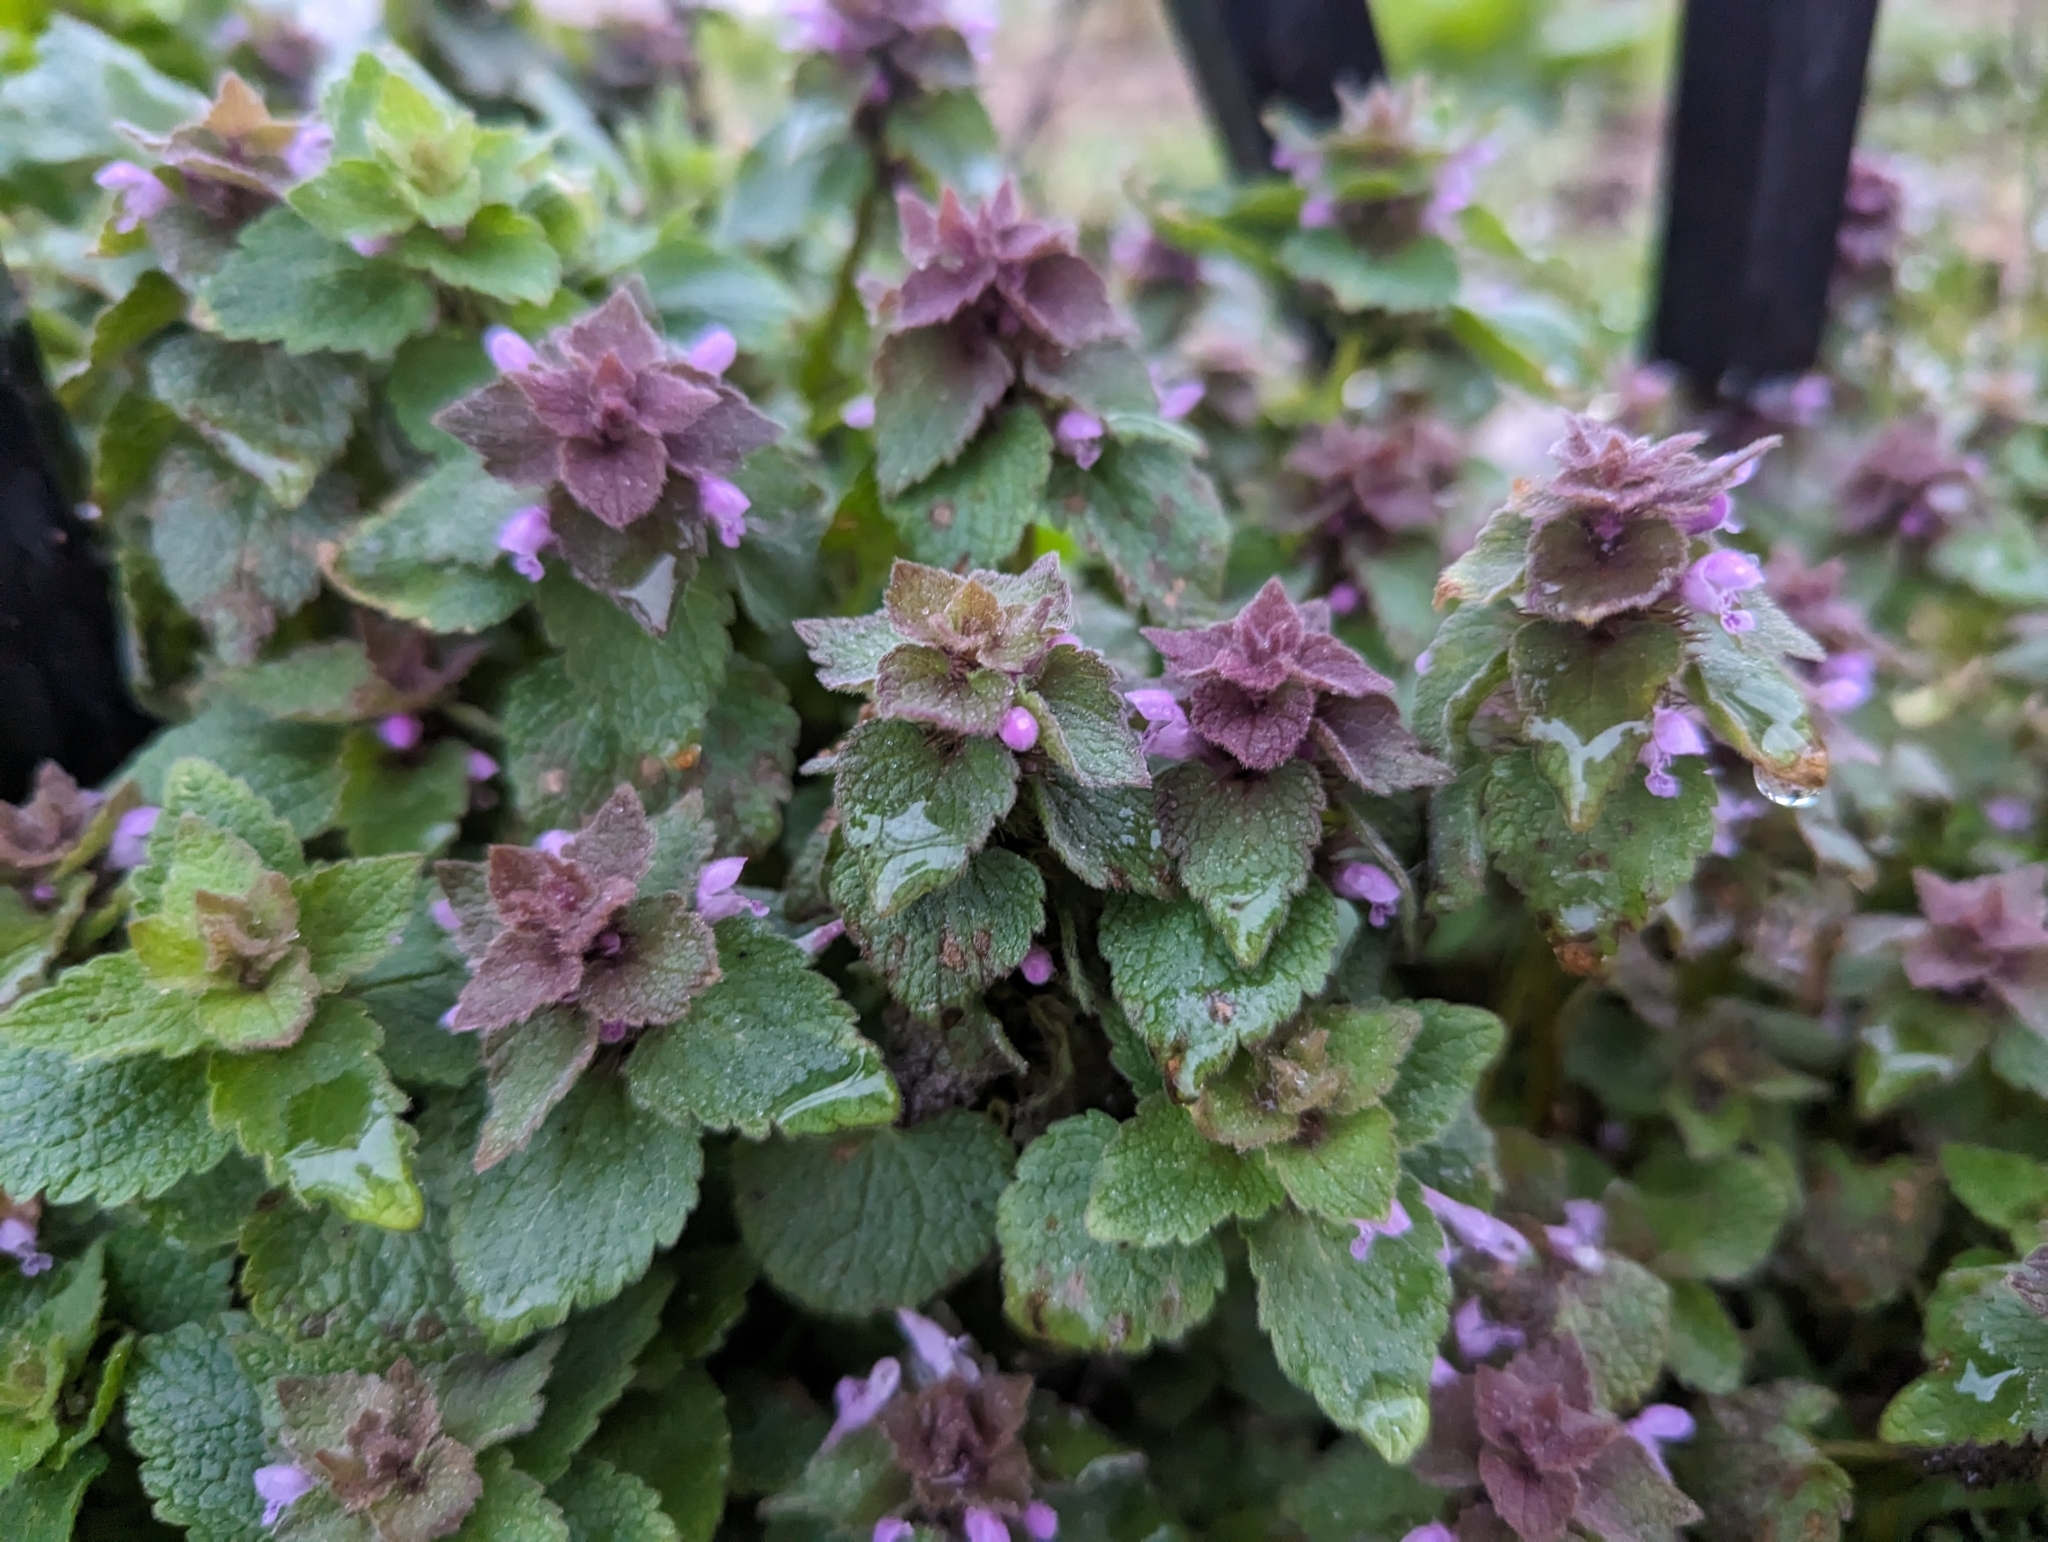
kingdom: Plantae
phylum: Tracheophyta
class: Magnoliopsida
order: Lamiales
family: Lamiaceae
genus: Lamium
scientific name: Lamium purpureum
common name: Red dead-nettle
